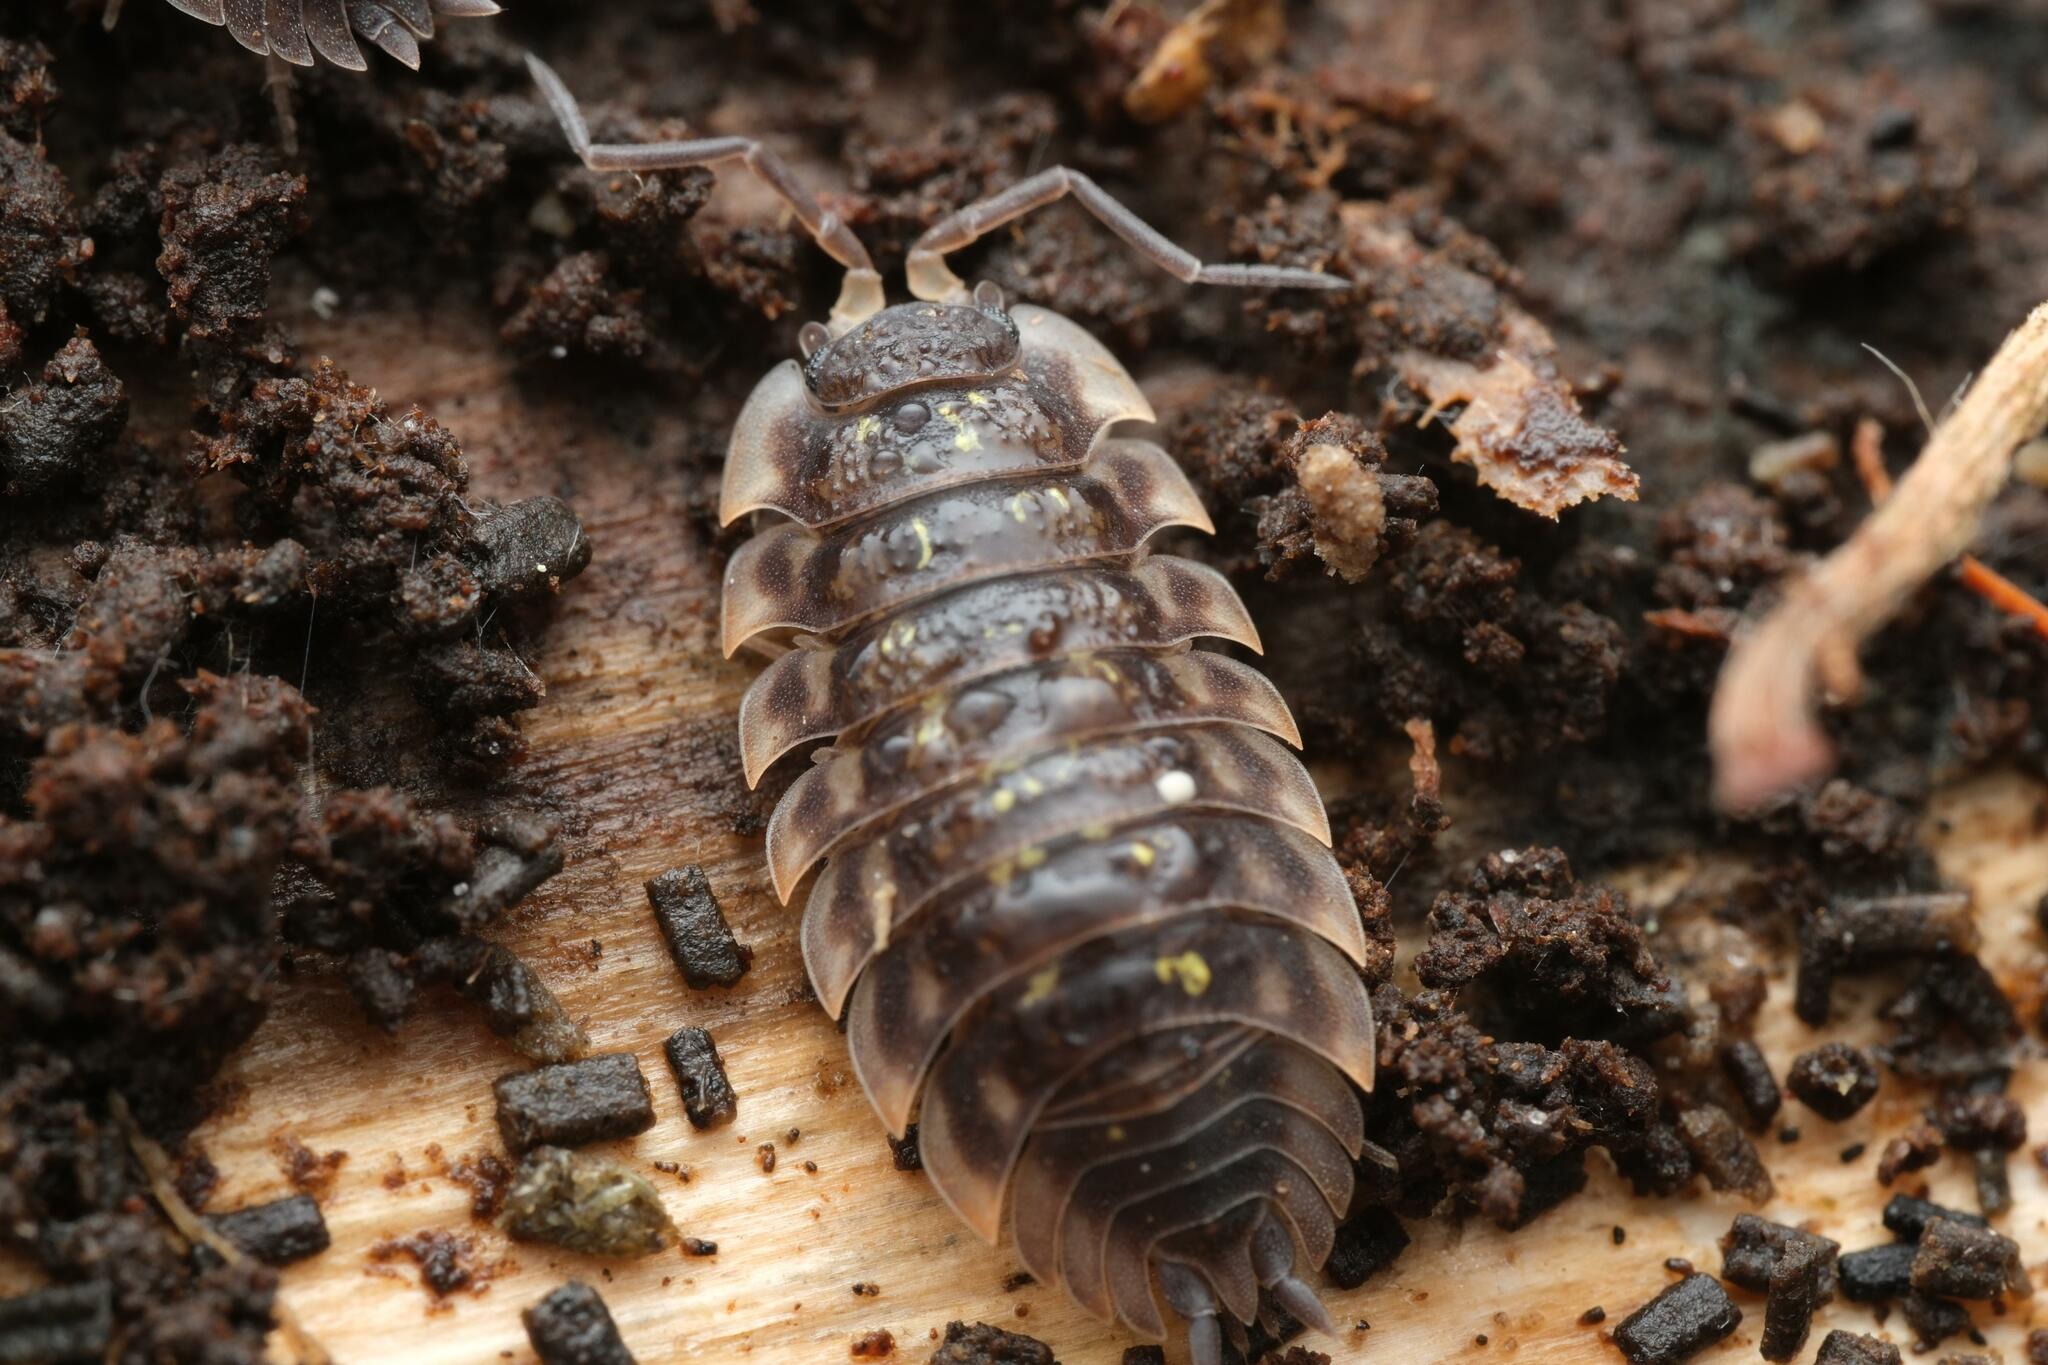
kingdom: Animalia
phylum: Arthropoda
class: Malacostraca
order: Isopoda
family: Oniscidae
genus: Oniscus
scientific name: Oniscus asellus
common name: Common shiny woodlouse
